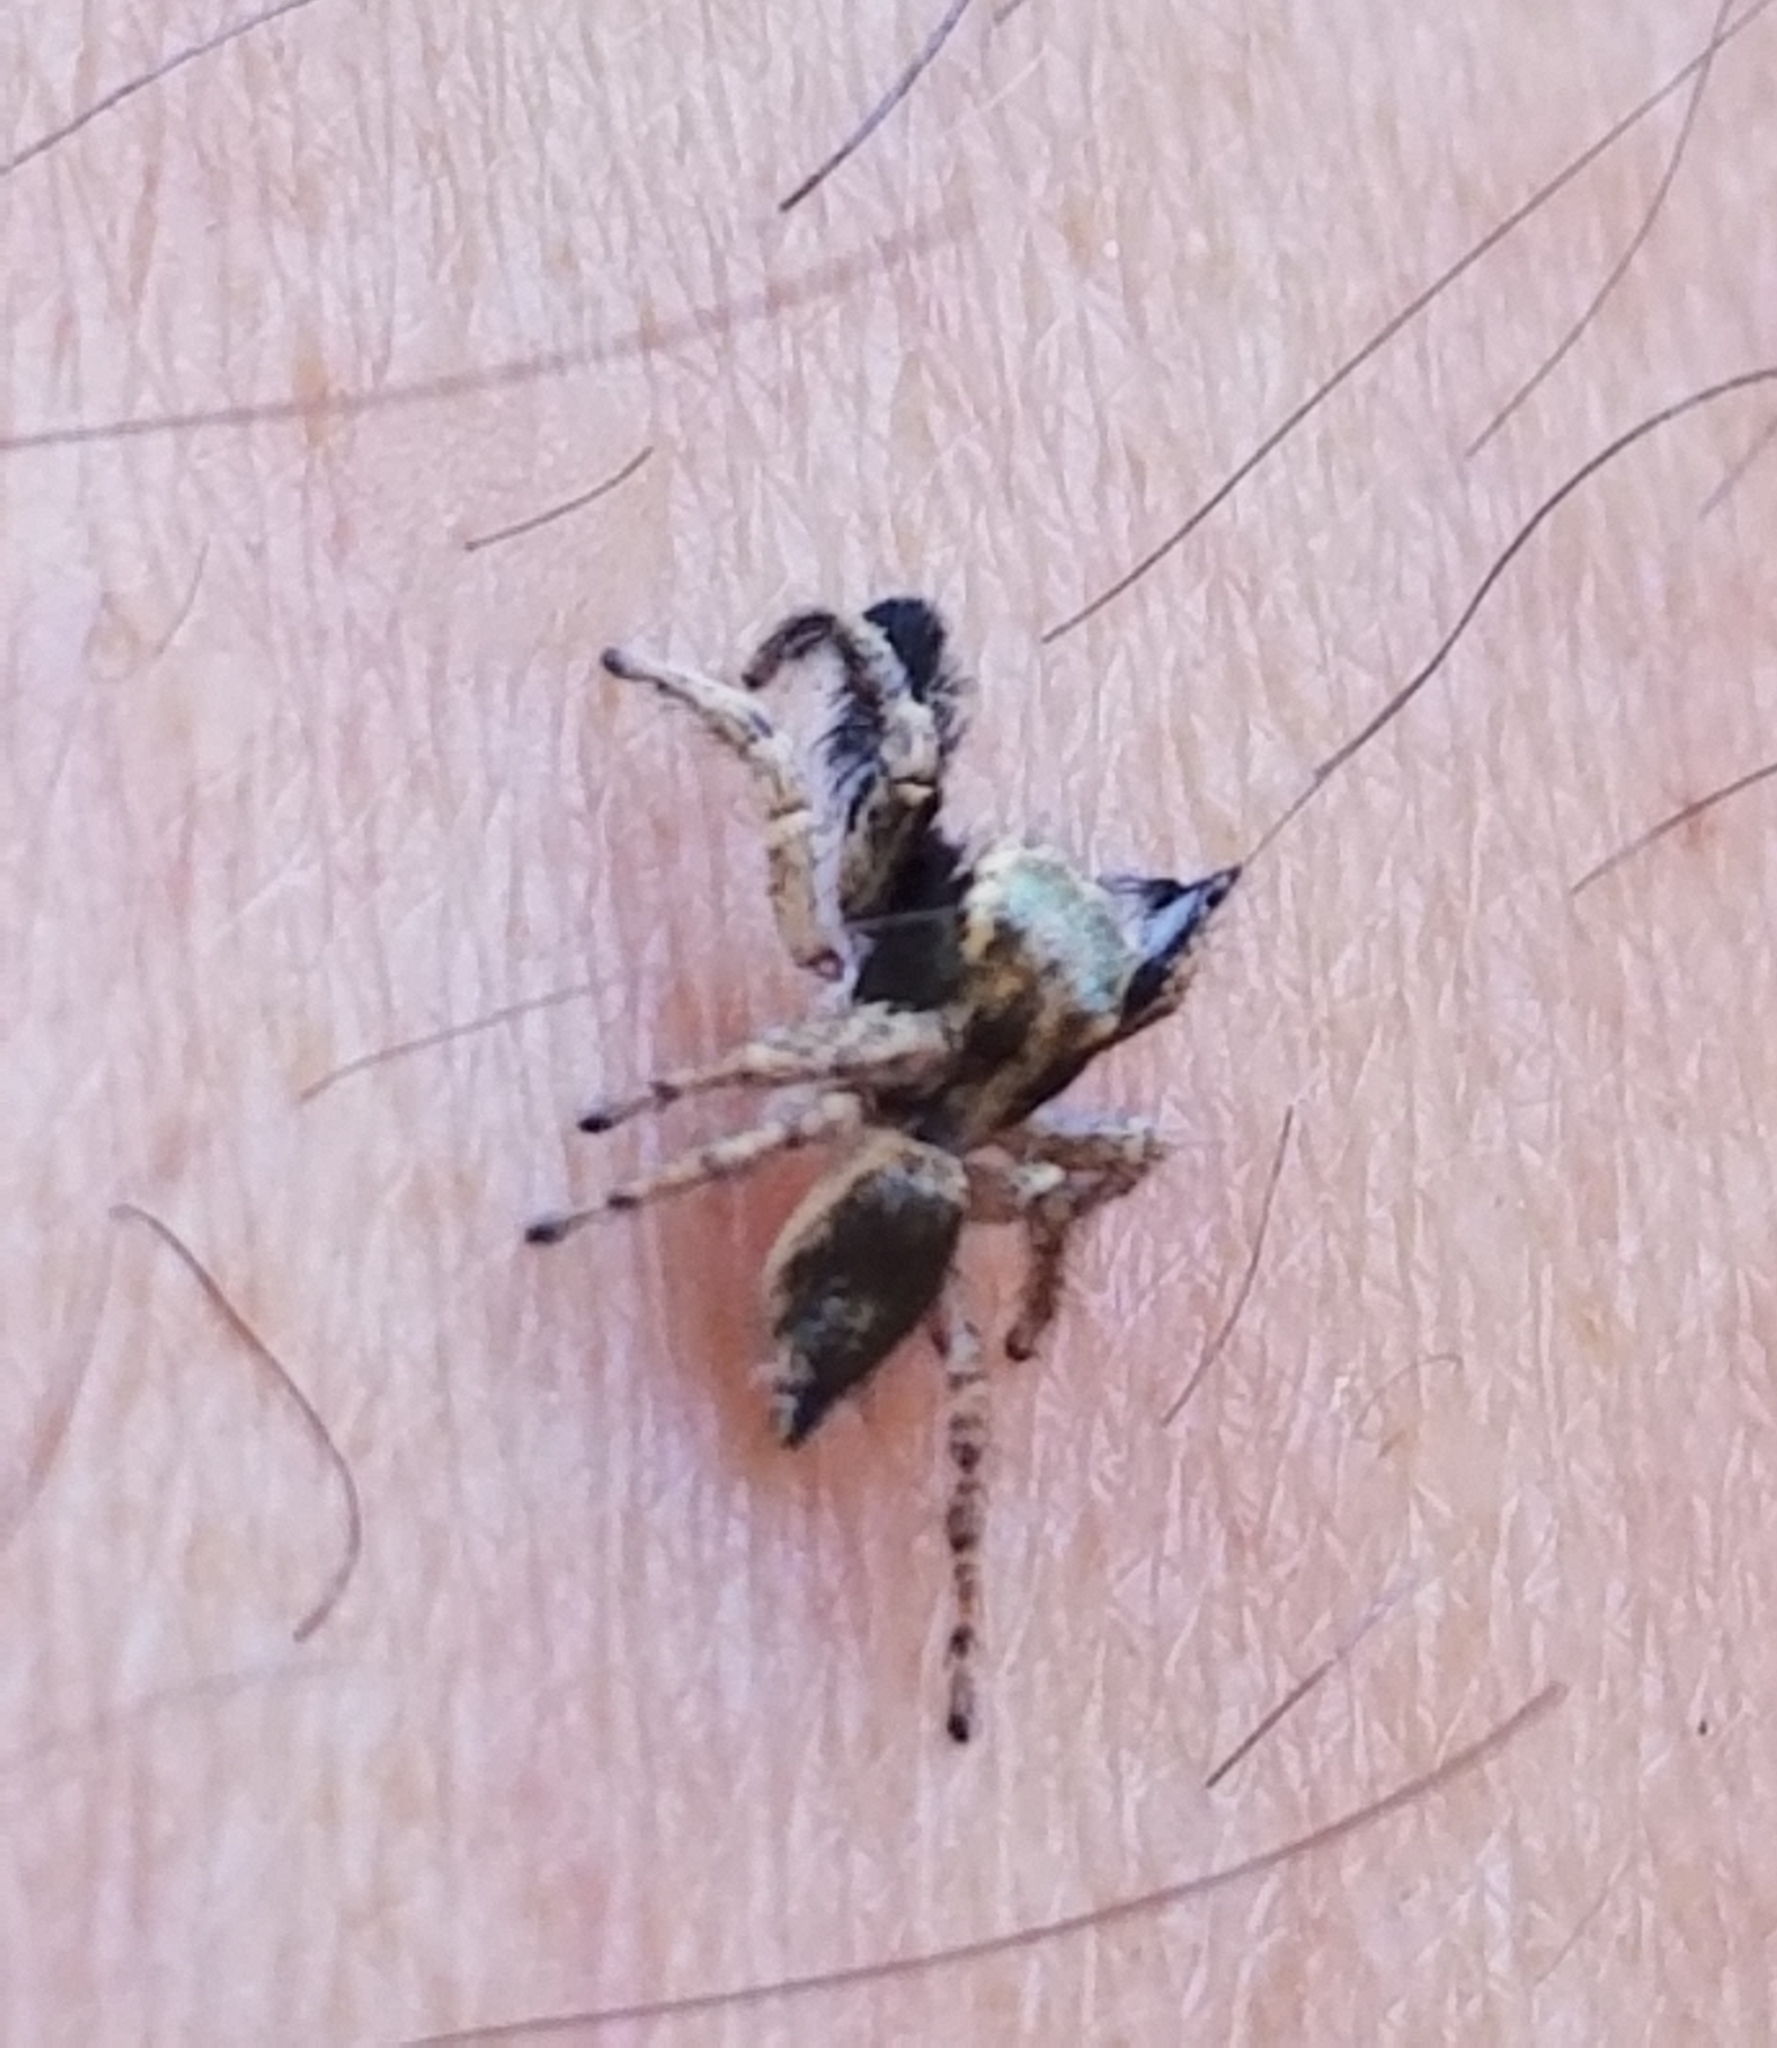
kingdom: Animalia
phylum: Arthropoda
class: Arachnida
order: Araneae
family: Salticidae
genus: Habronattus
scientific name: Habronattus hirsutus
